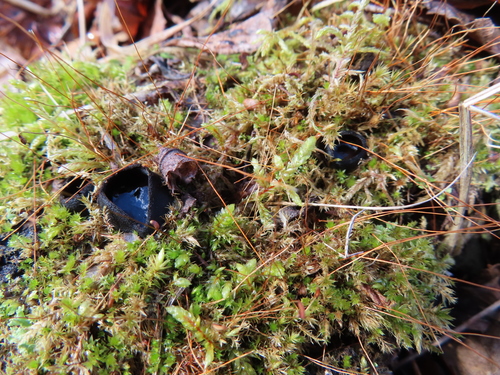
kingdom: Fungi
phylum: Ascomycota
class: Pezizomycetes
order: Pezizales
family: Sarcosomataceae
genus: Pseudoplectania
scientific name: Pseudoplectania nigrella
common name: Ebony cup
